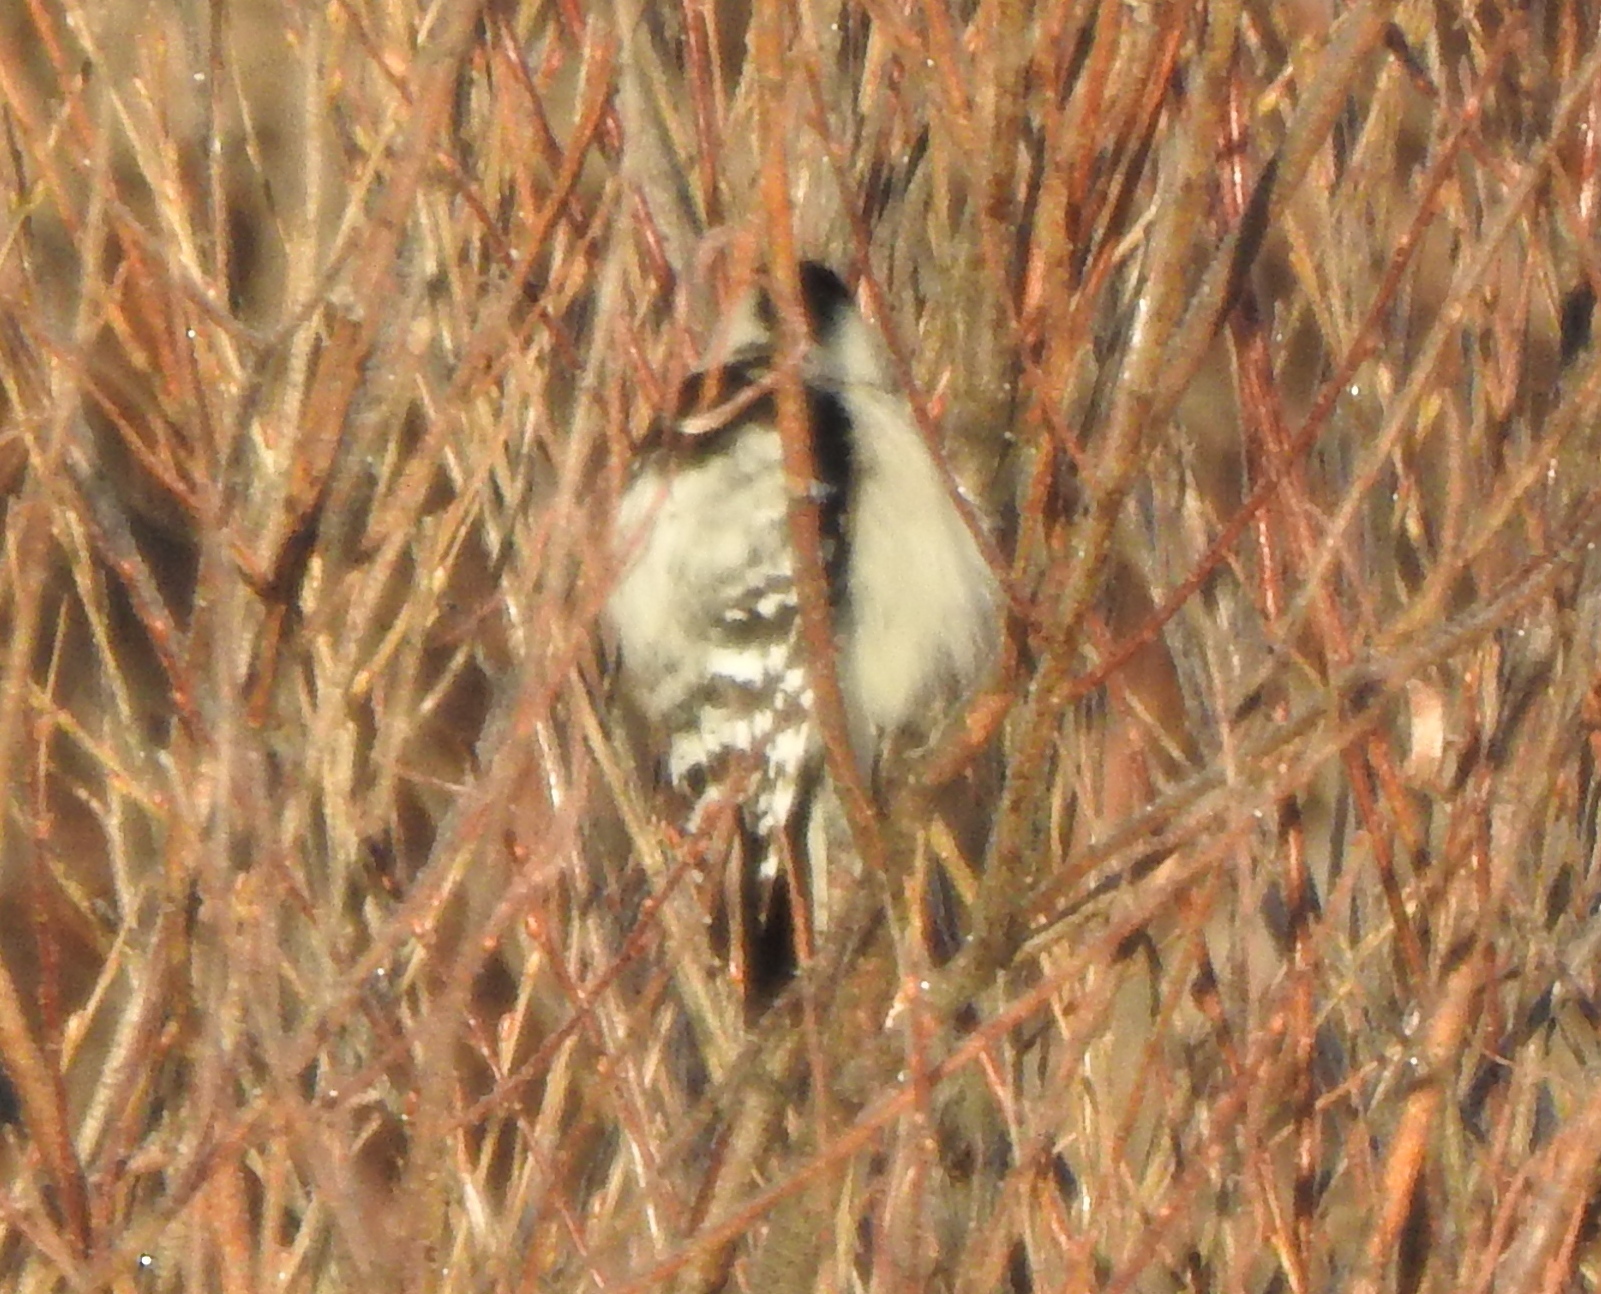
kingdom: Animalia
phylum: Chordata
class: Aves
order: Piciformes
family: Picidae
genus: Dryobates
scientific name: Dryobates minor
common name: Lesser spotted woodpecker
